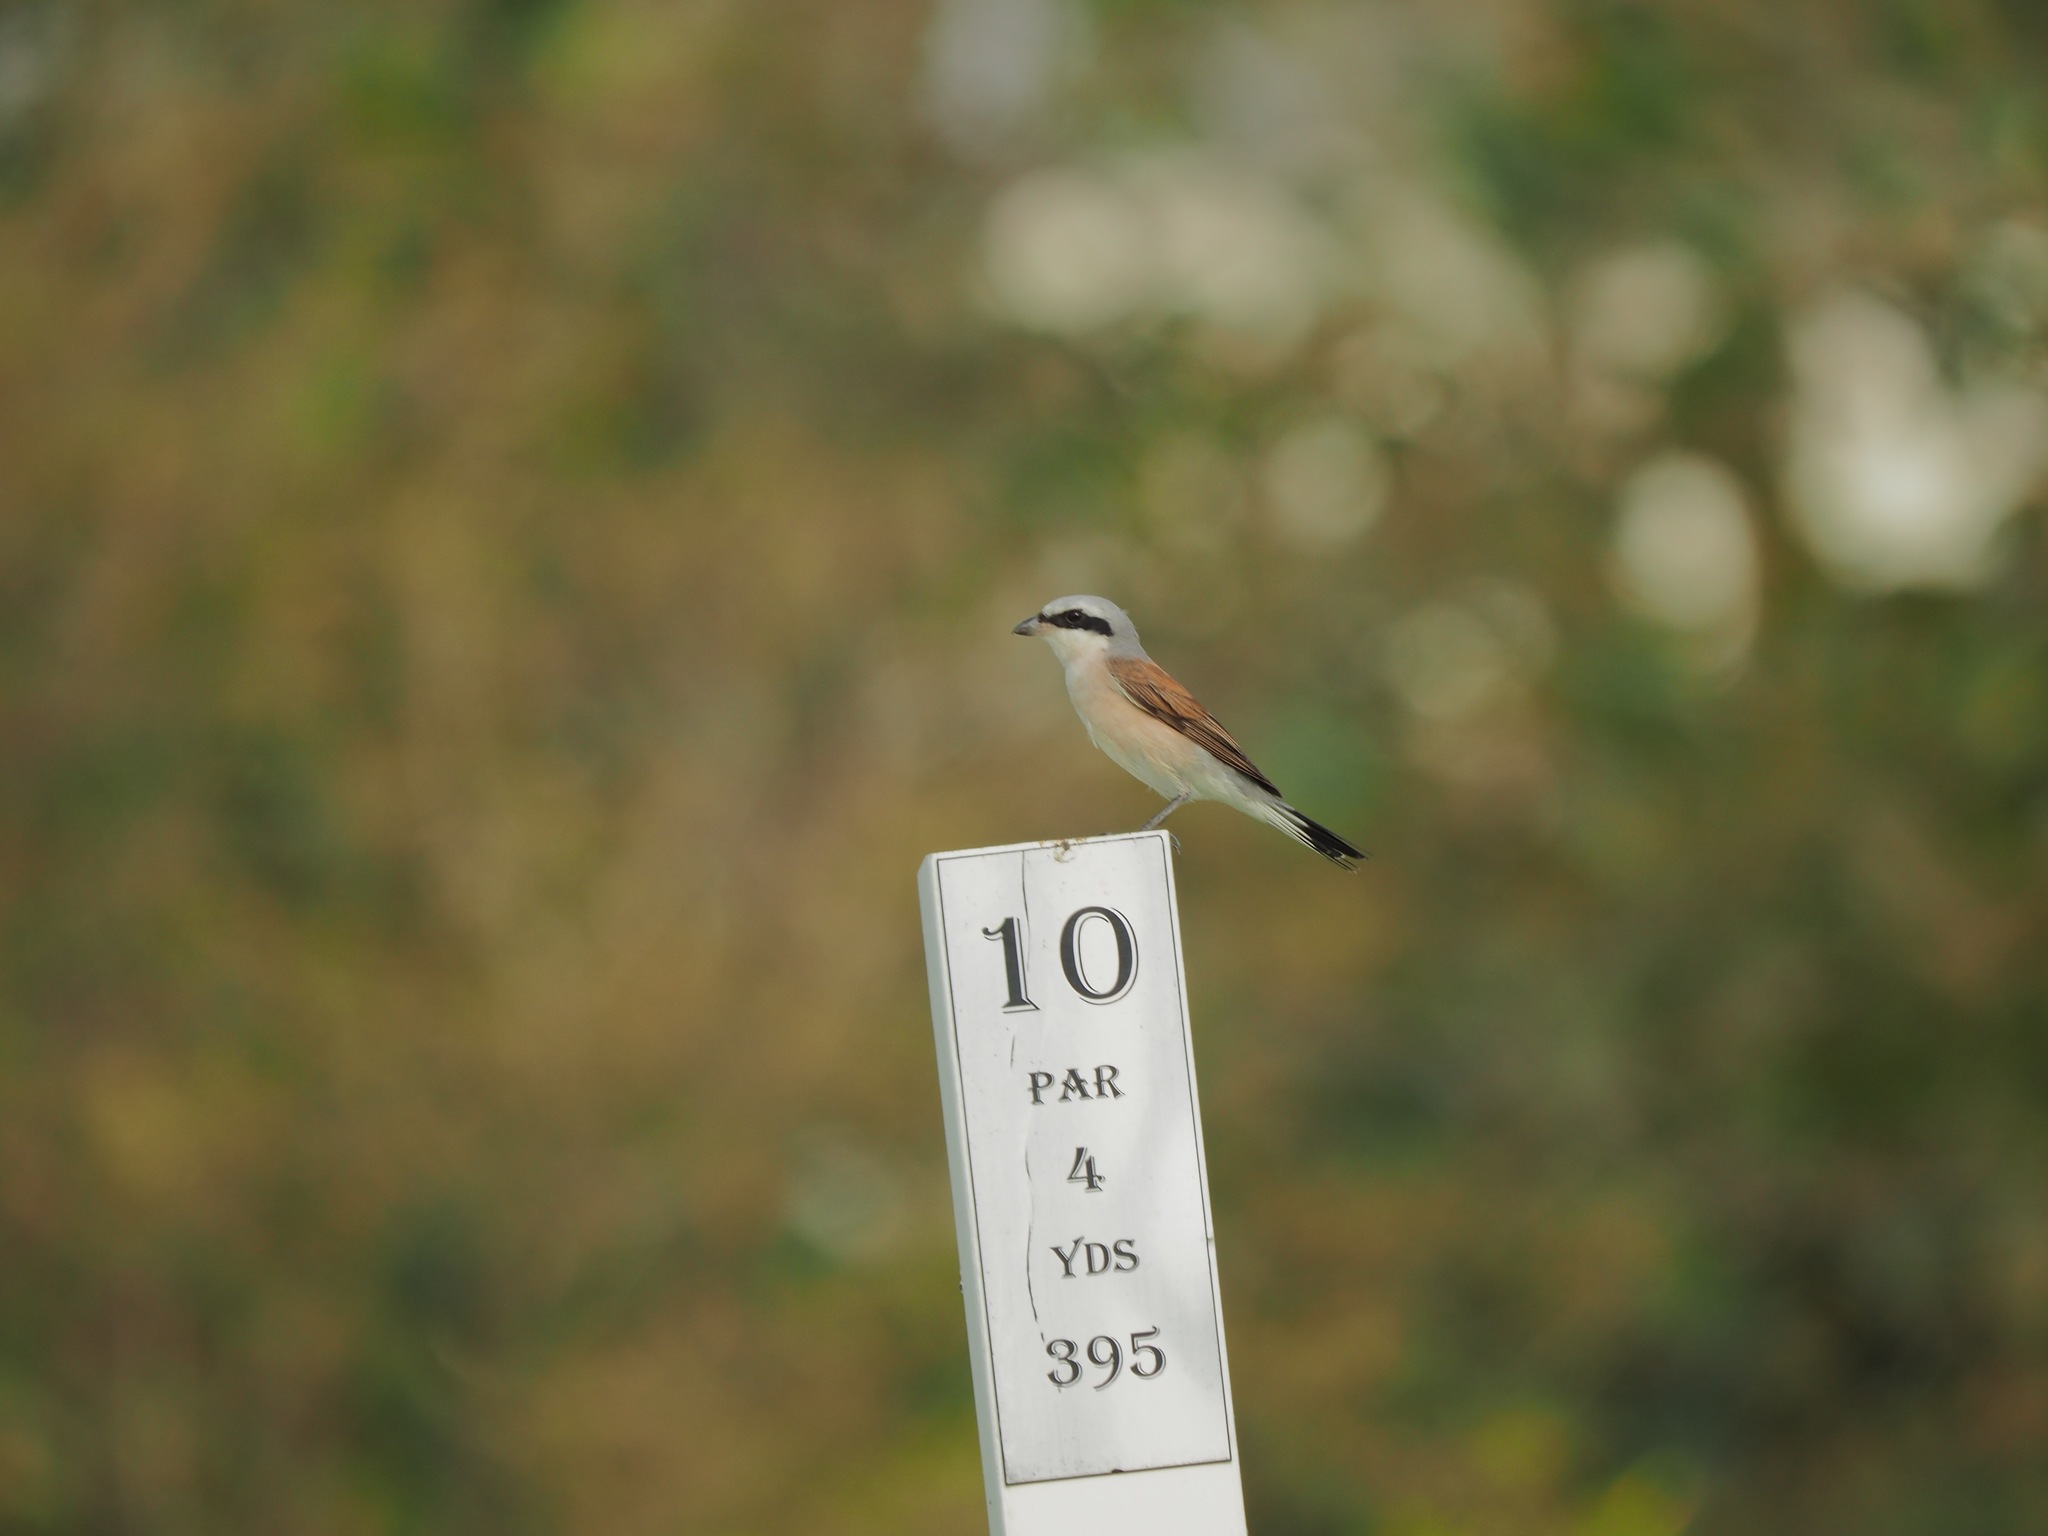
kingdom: Animalia
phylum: Chordata
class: Aves
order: Passeriformes
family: Laniidae
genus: Lanius
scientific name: Lanius collurio
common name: Red-backed shrike
